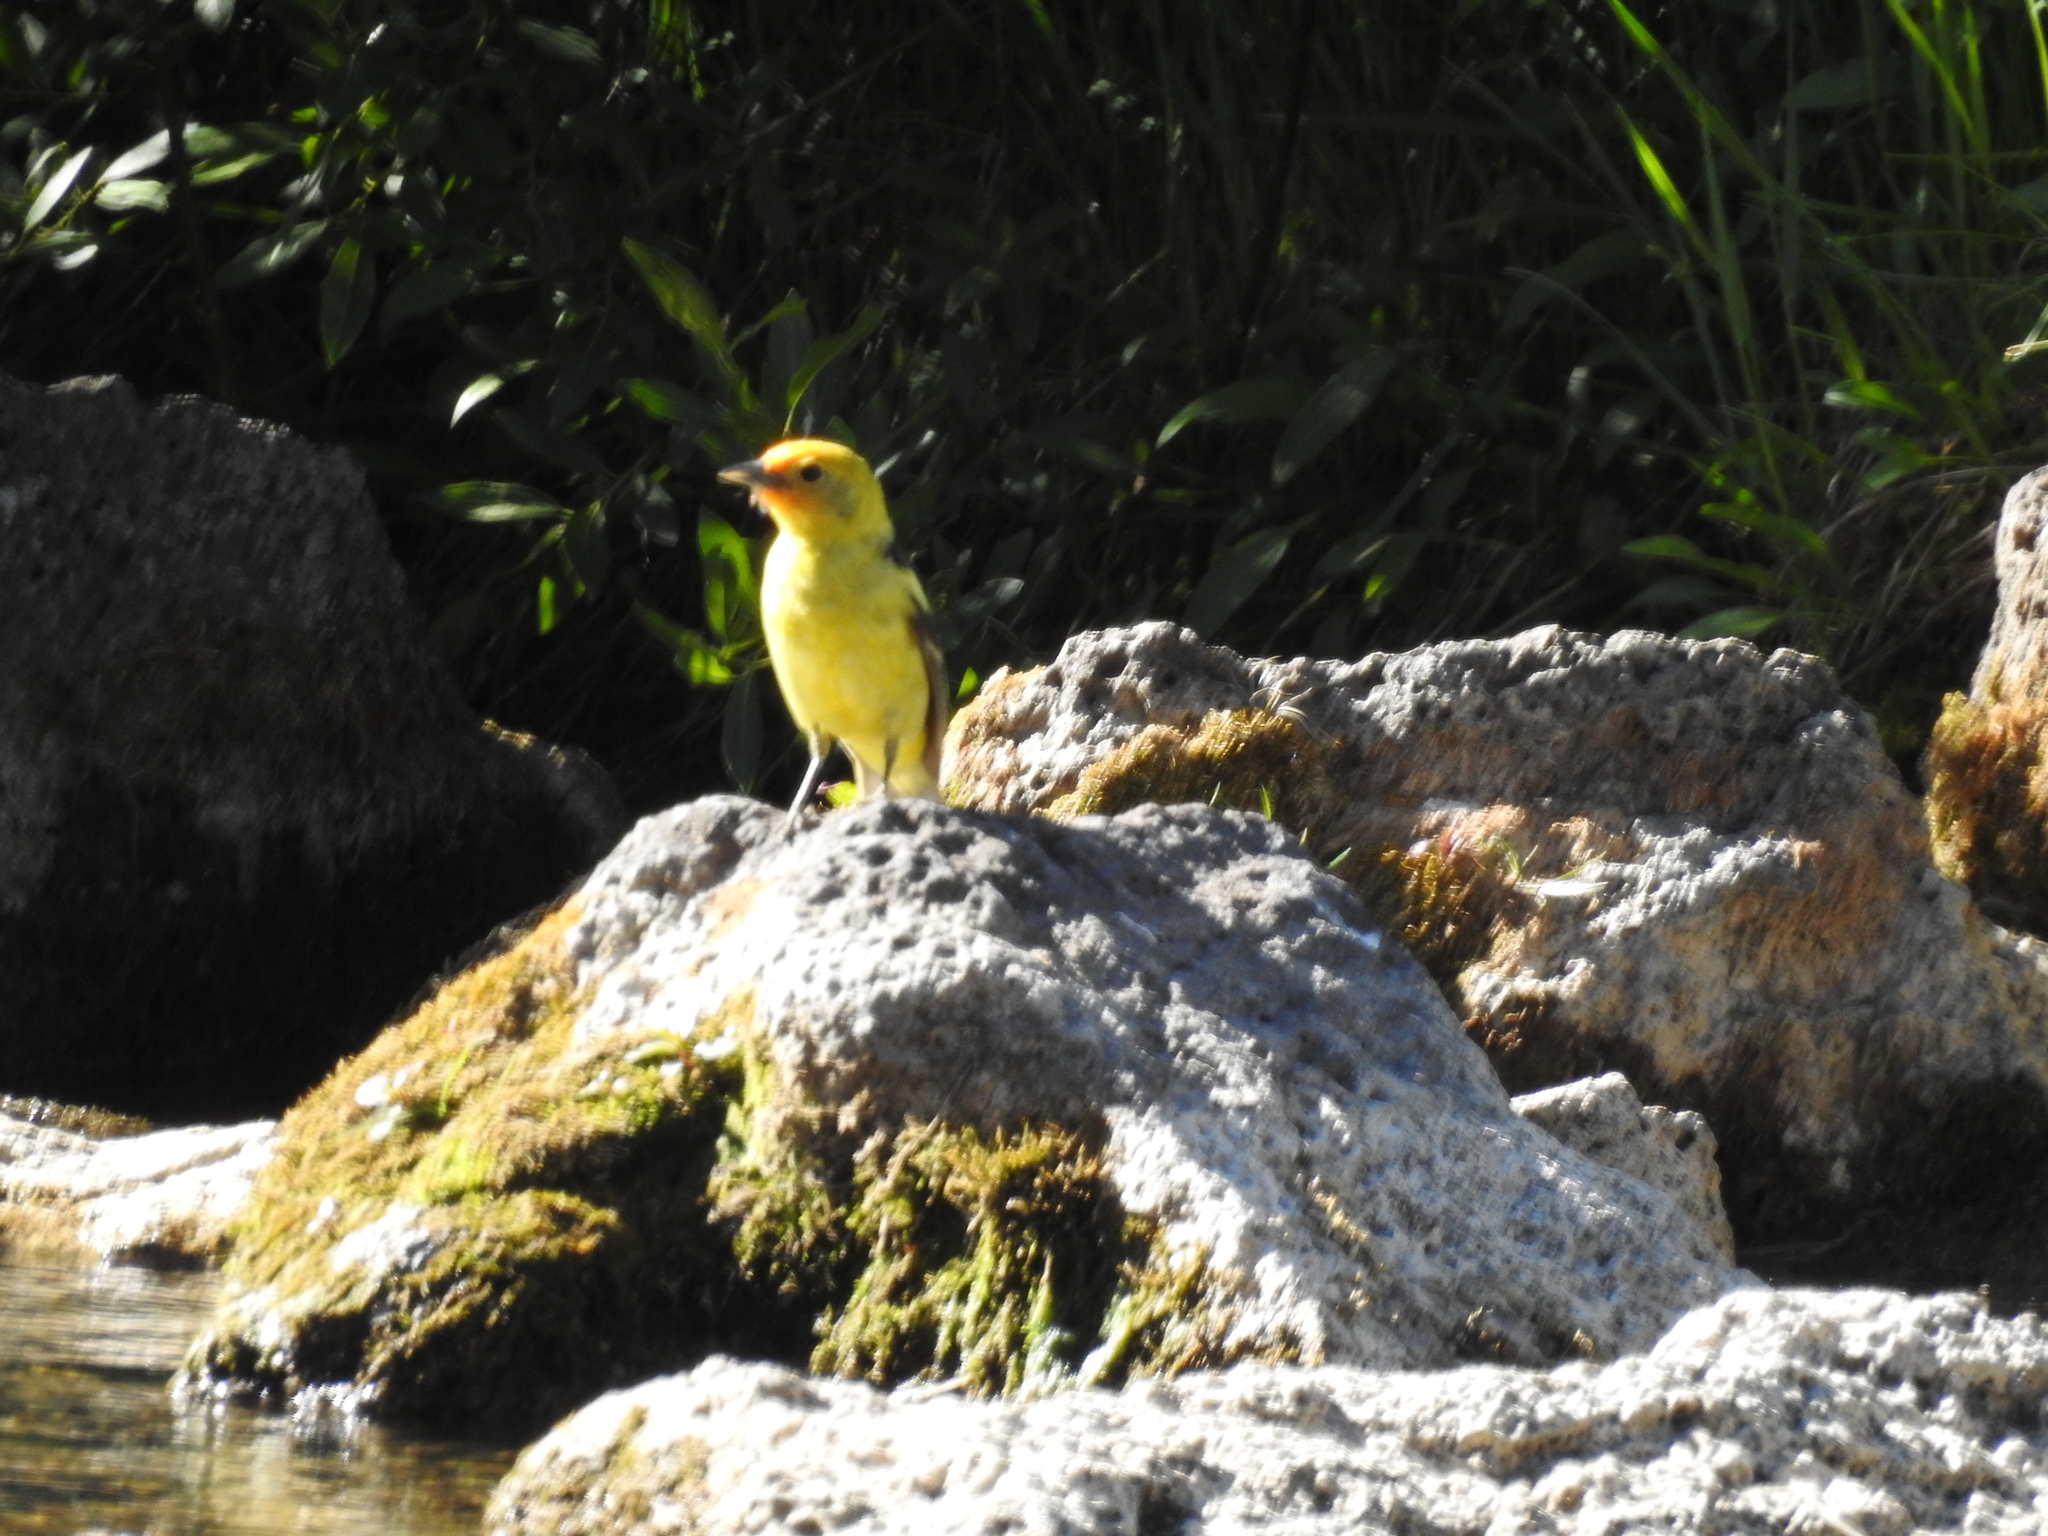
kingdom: Animalia
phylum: Chordata
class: Aves
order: Passeriformes
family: Cardinalidae
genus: Piranga
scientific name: Piranga ludoviciana
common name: Western tanager
